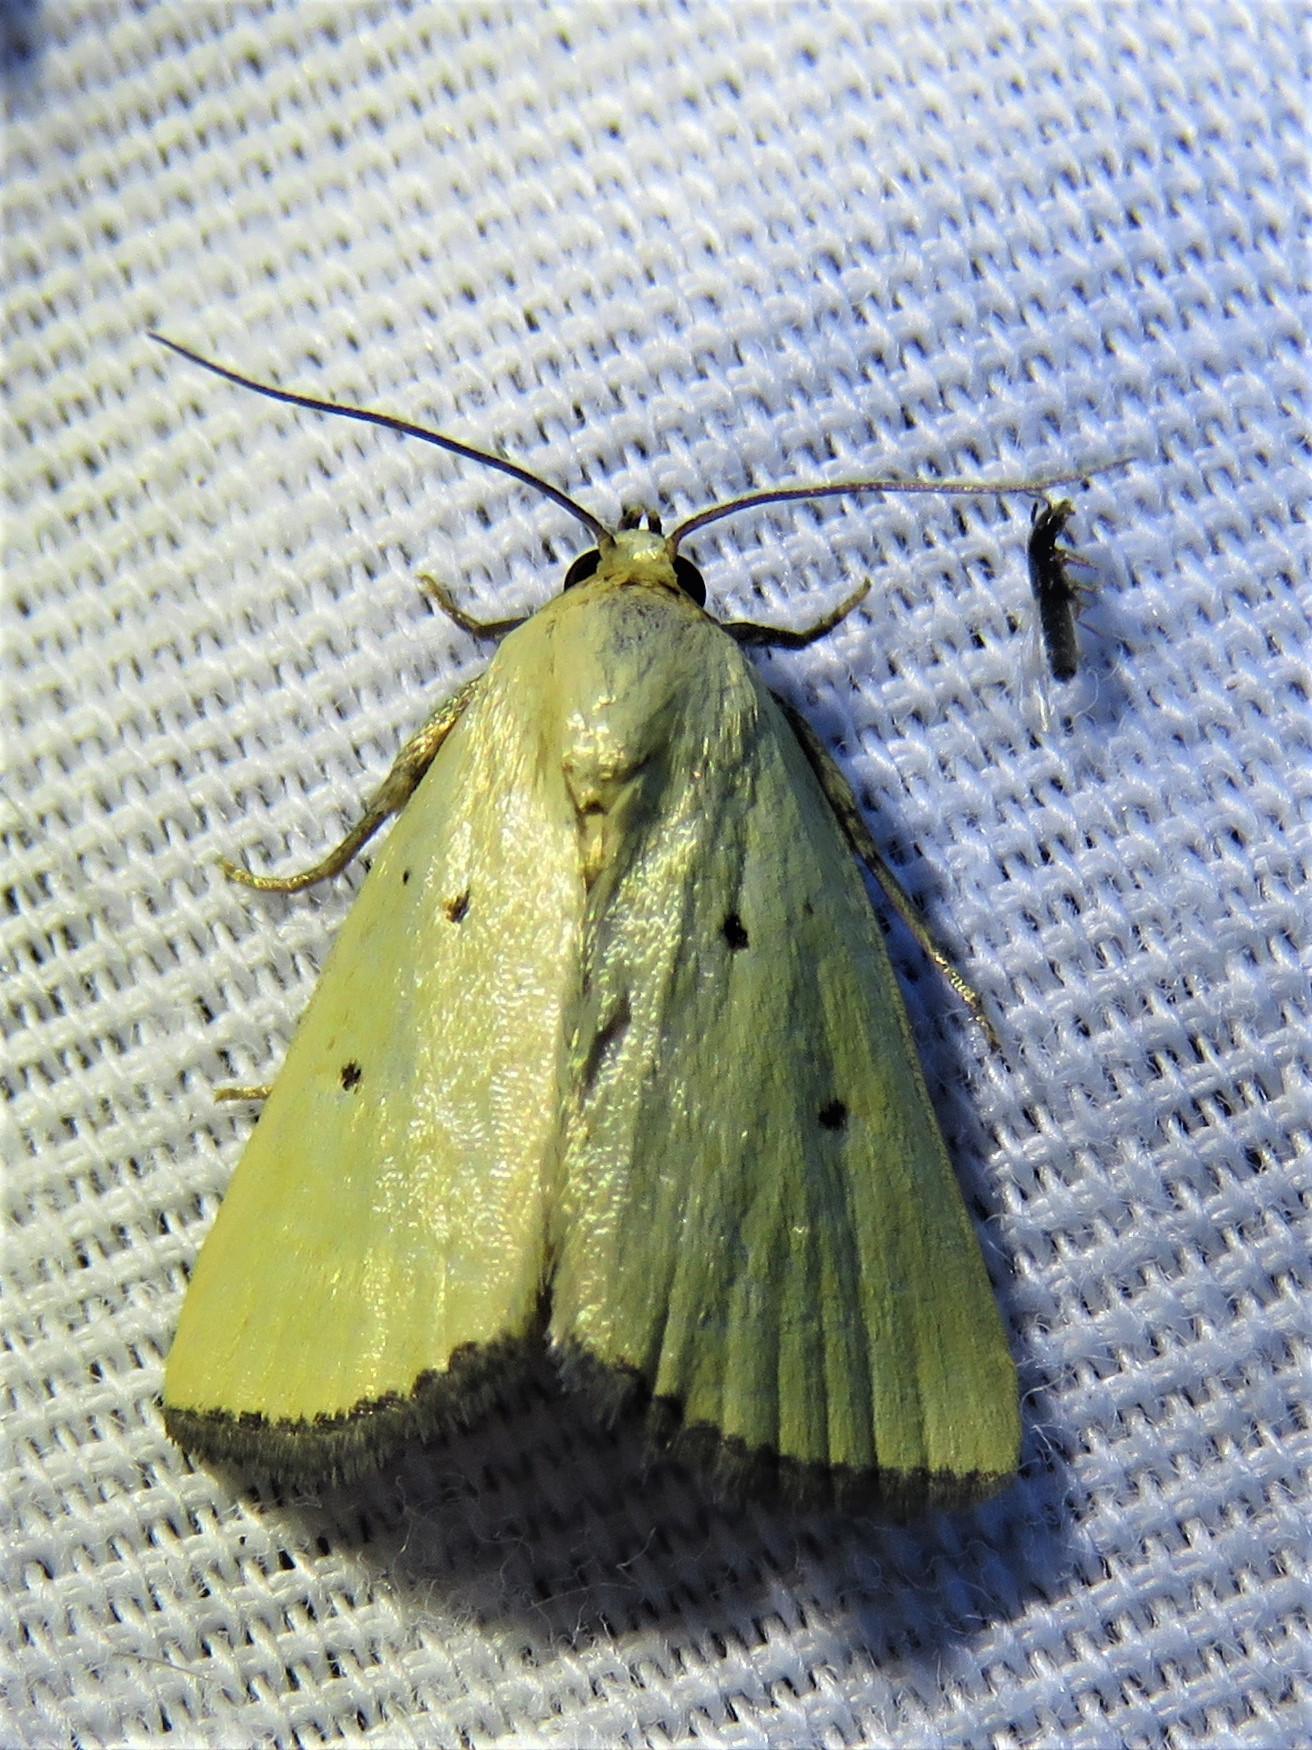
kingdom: Animalia
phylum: Arthropoda
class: Insecta
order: Lepidoptera
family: Noctuidae
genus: Marimatha
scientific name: Marimatha nigrofimbria
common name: Black-bordered lemon moth
